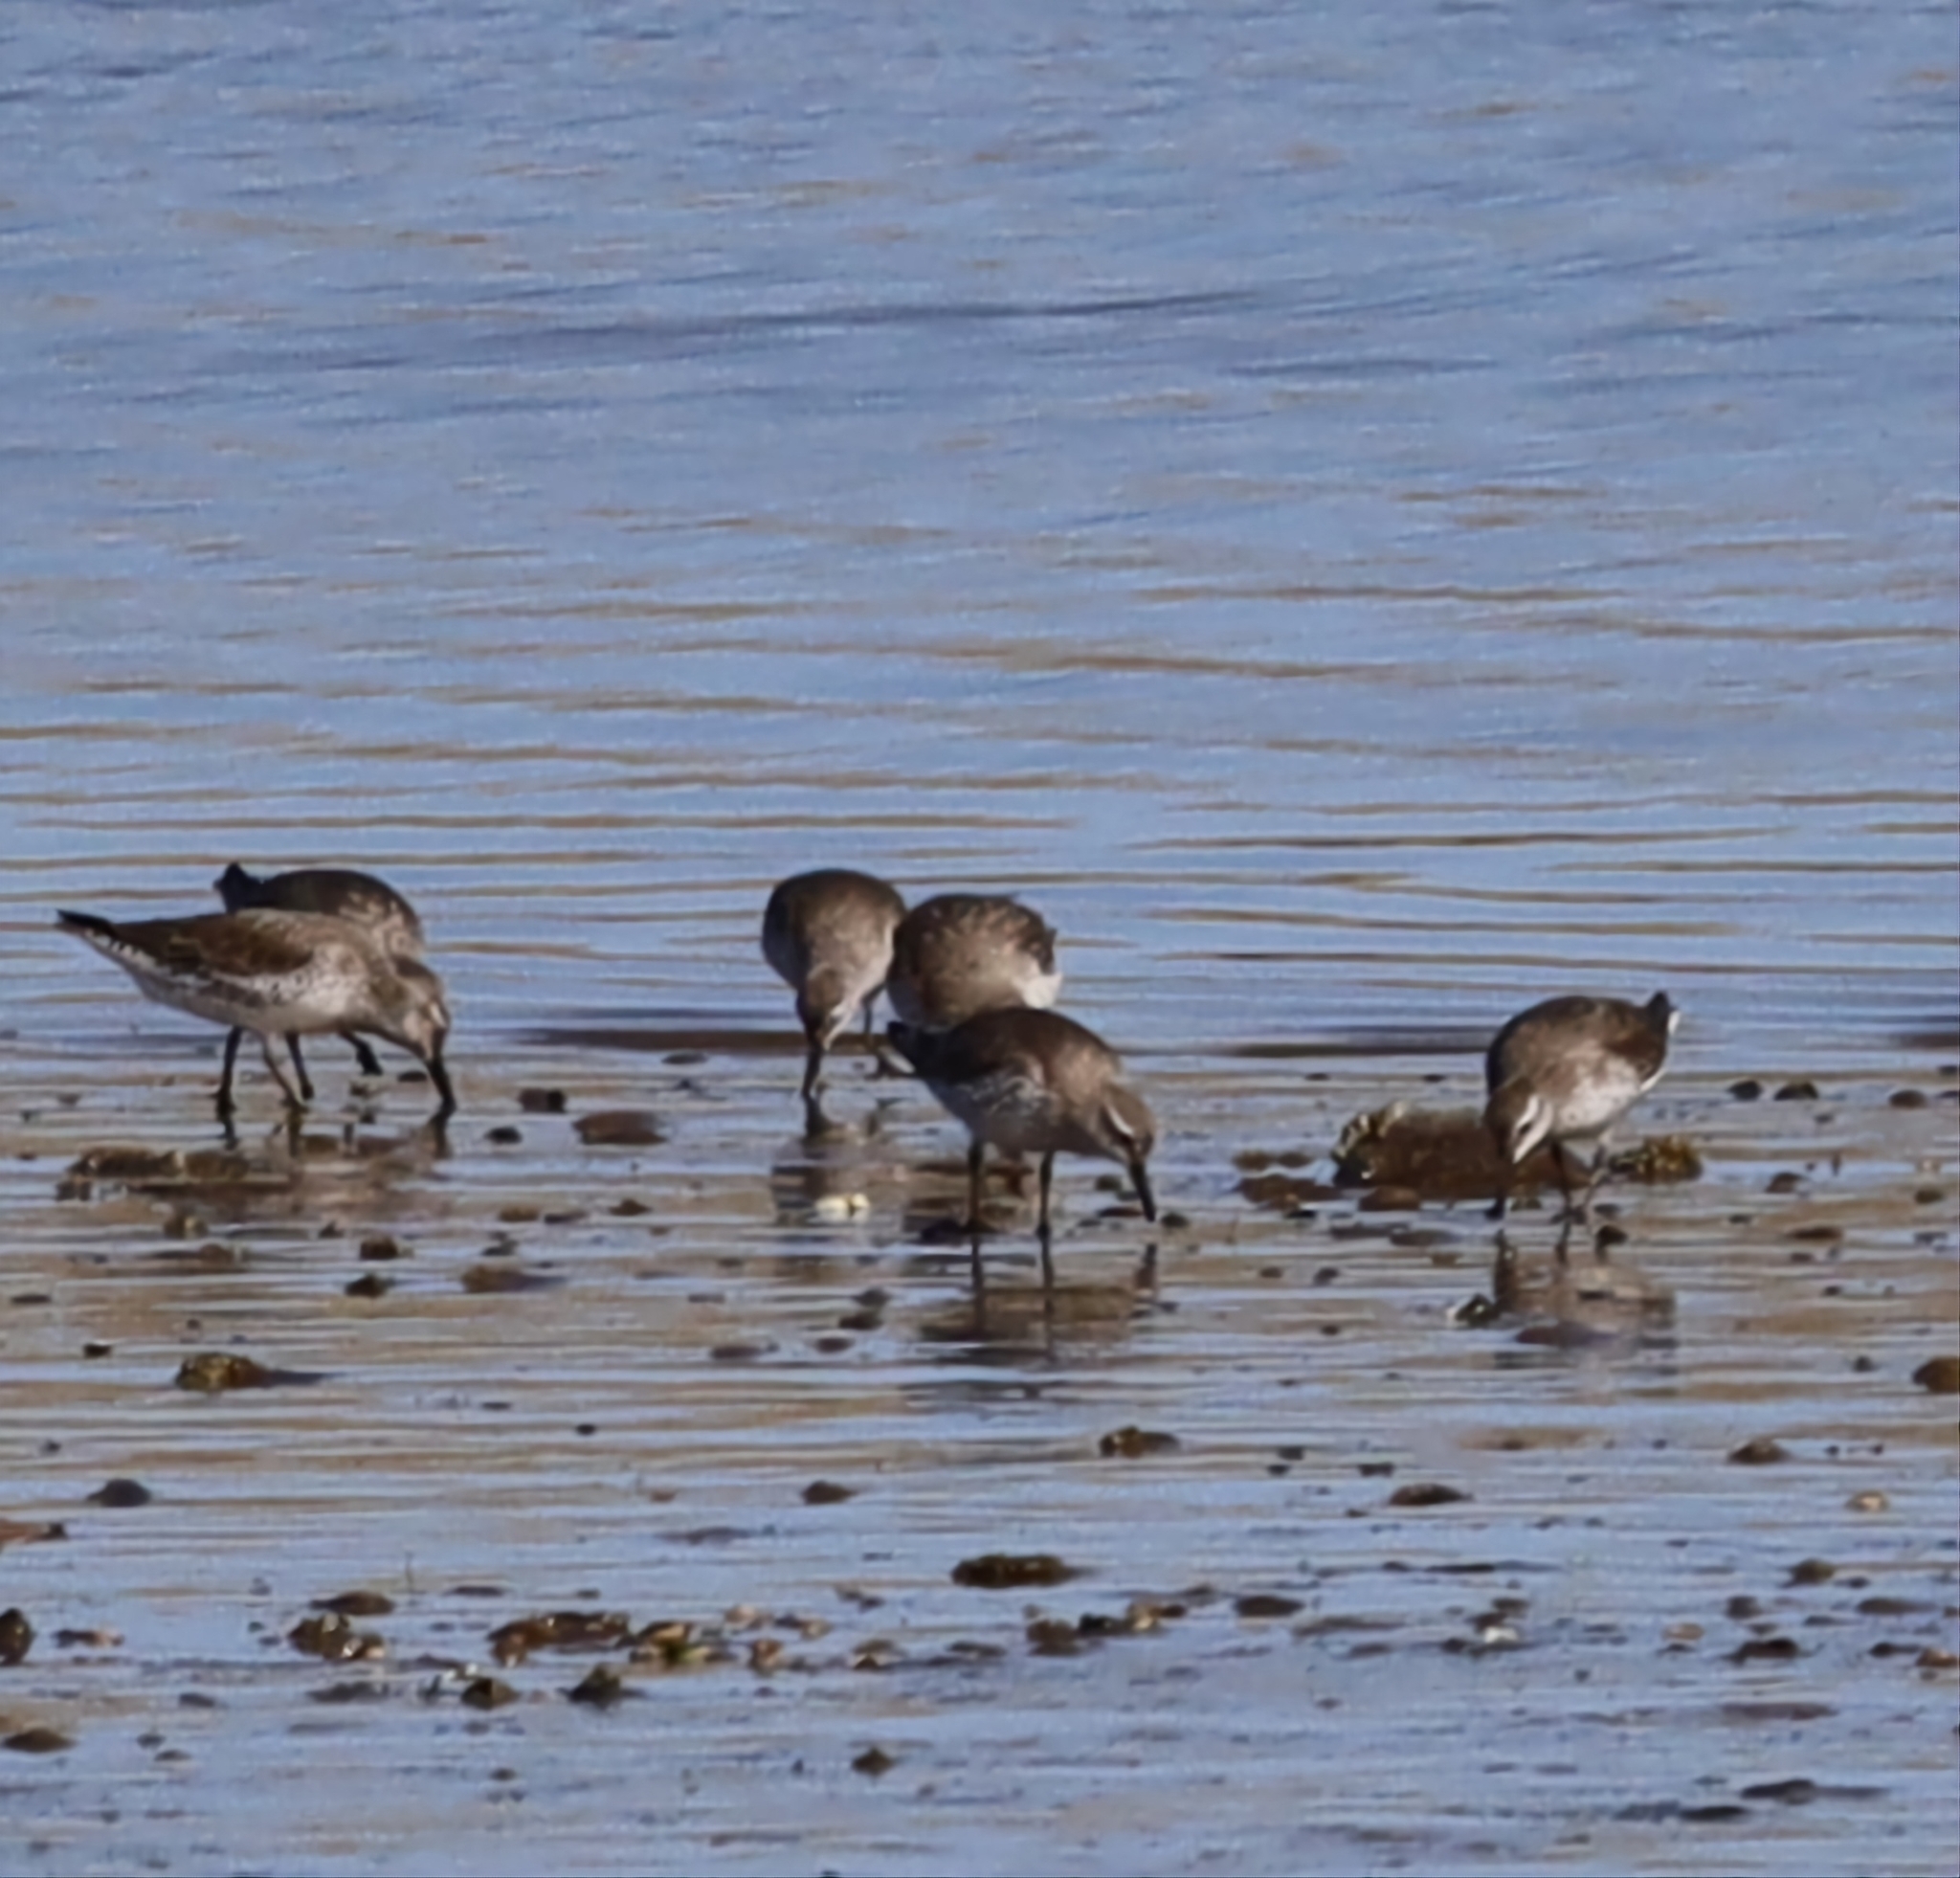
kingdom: Animalia
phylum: Chordata
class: Aves
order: Charadriiformes
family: Scolopacidae
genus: Calidris
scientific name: Calidris canutus
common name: Red knot
